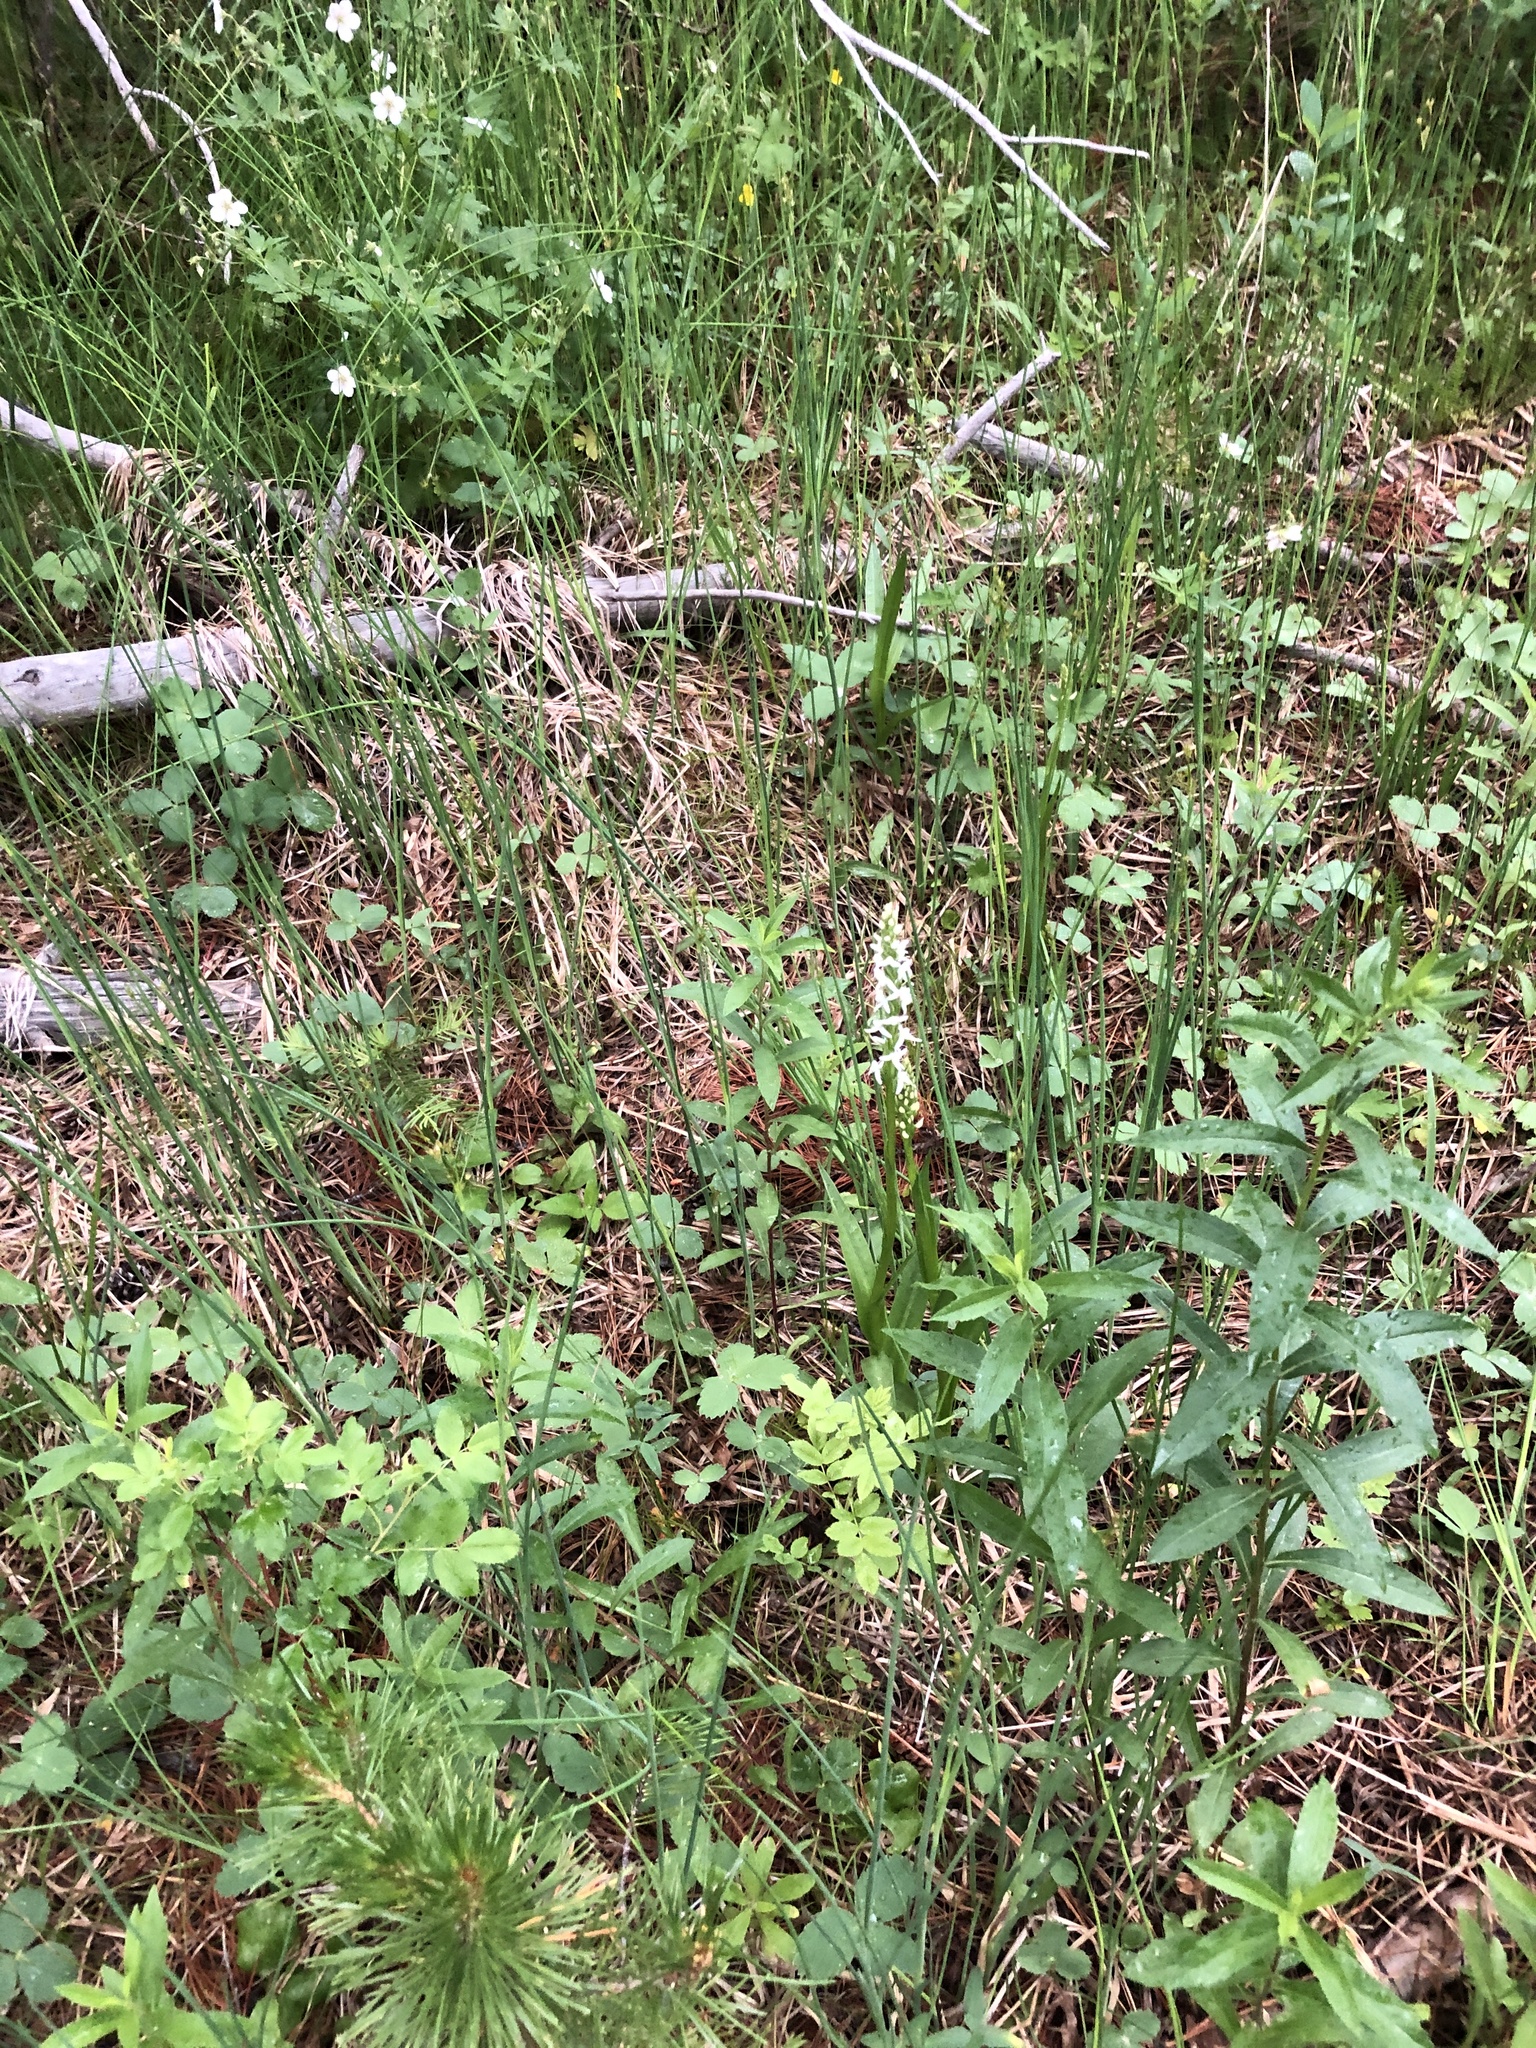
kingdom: Plantae
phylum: Tracheophyta
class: Liliopsida
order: Asparagales
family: Orchidaceae
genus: Platanthera
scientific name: Platanthera dilatata
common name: Bog candles
